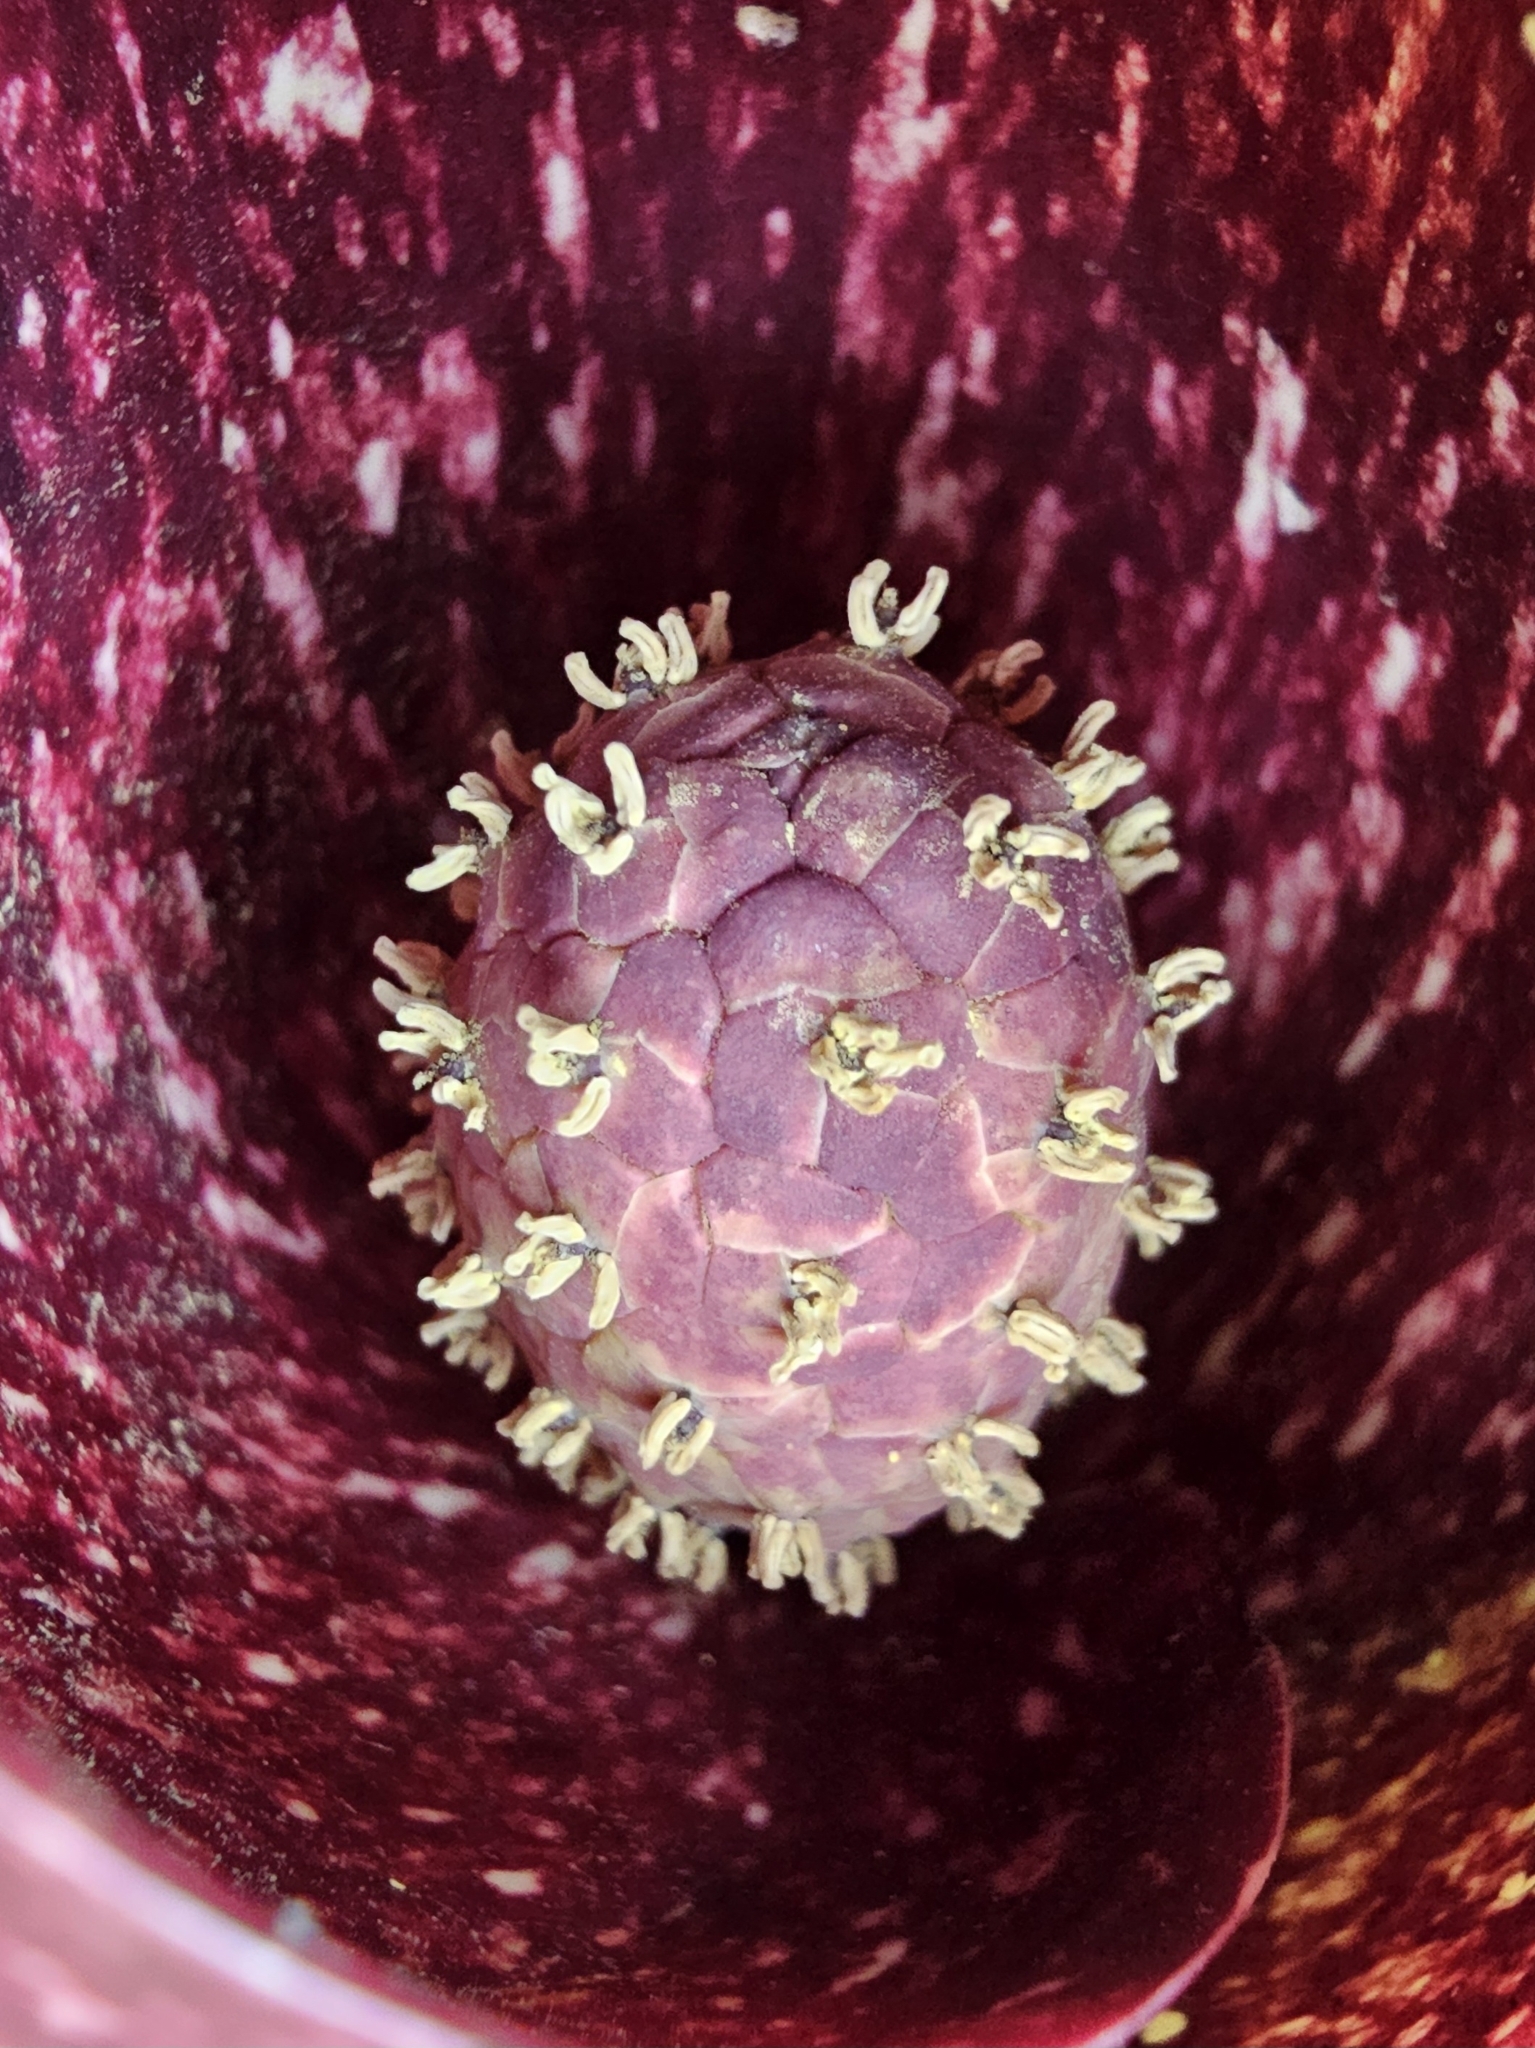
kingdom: Plantae
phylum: Tracheophyta
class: Liliopsida
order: Alismatales
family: Araceae
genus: Symplocarpus
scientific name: Symplocarpus foetidus
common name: Eastern skunk cabbage
